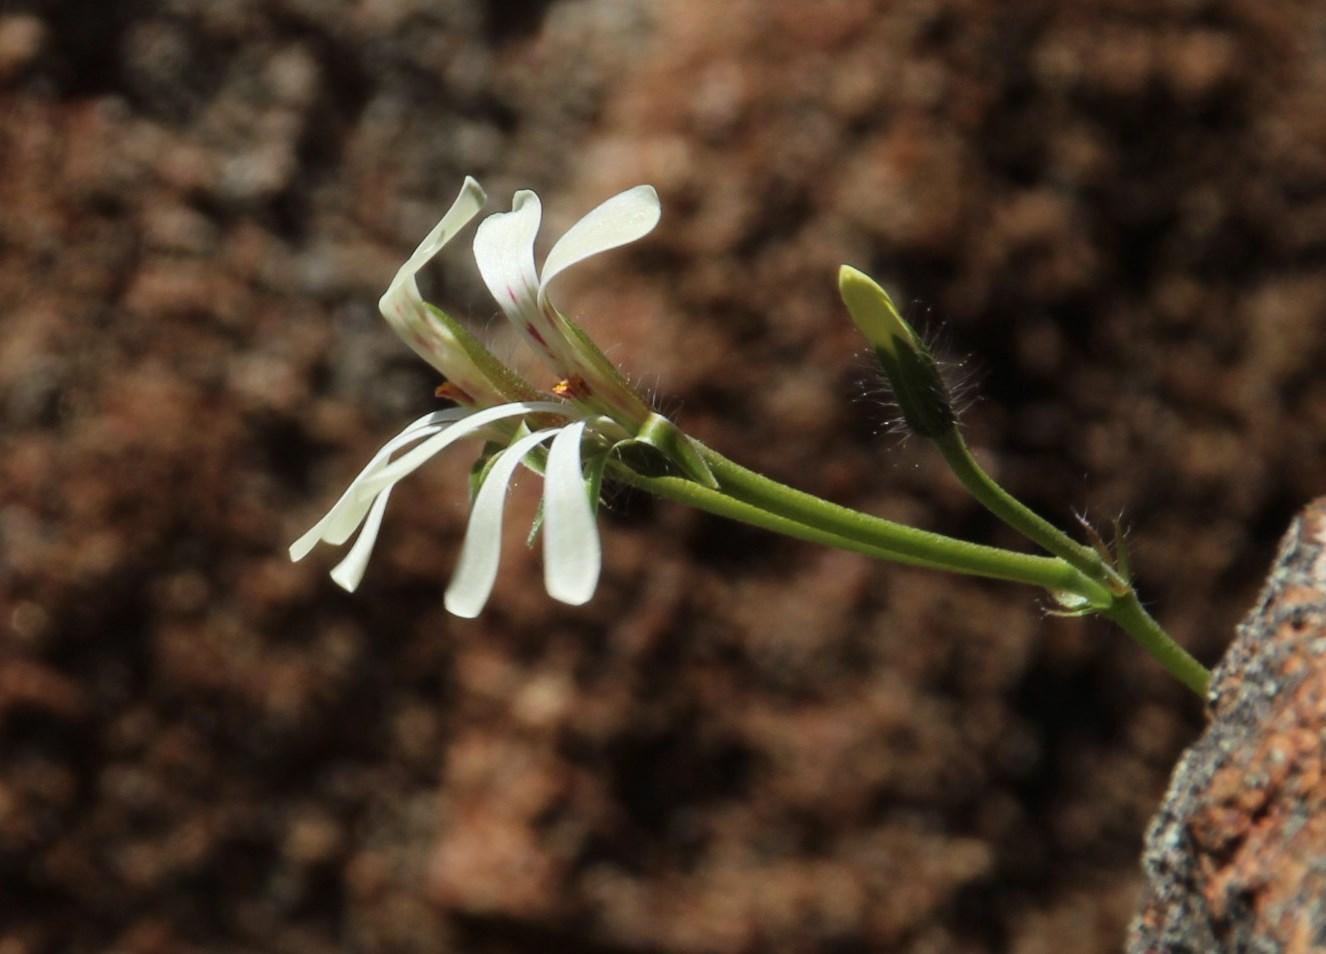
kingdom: Plantae
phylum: Tracheophyta
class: Magnoliopsida
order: Geraniales
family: Geraniaceae
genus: Pelargonium
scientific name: Pelargonium alchemilloides
